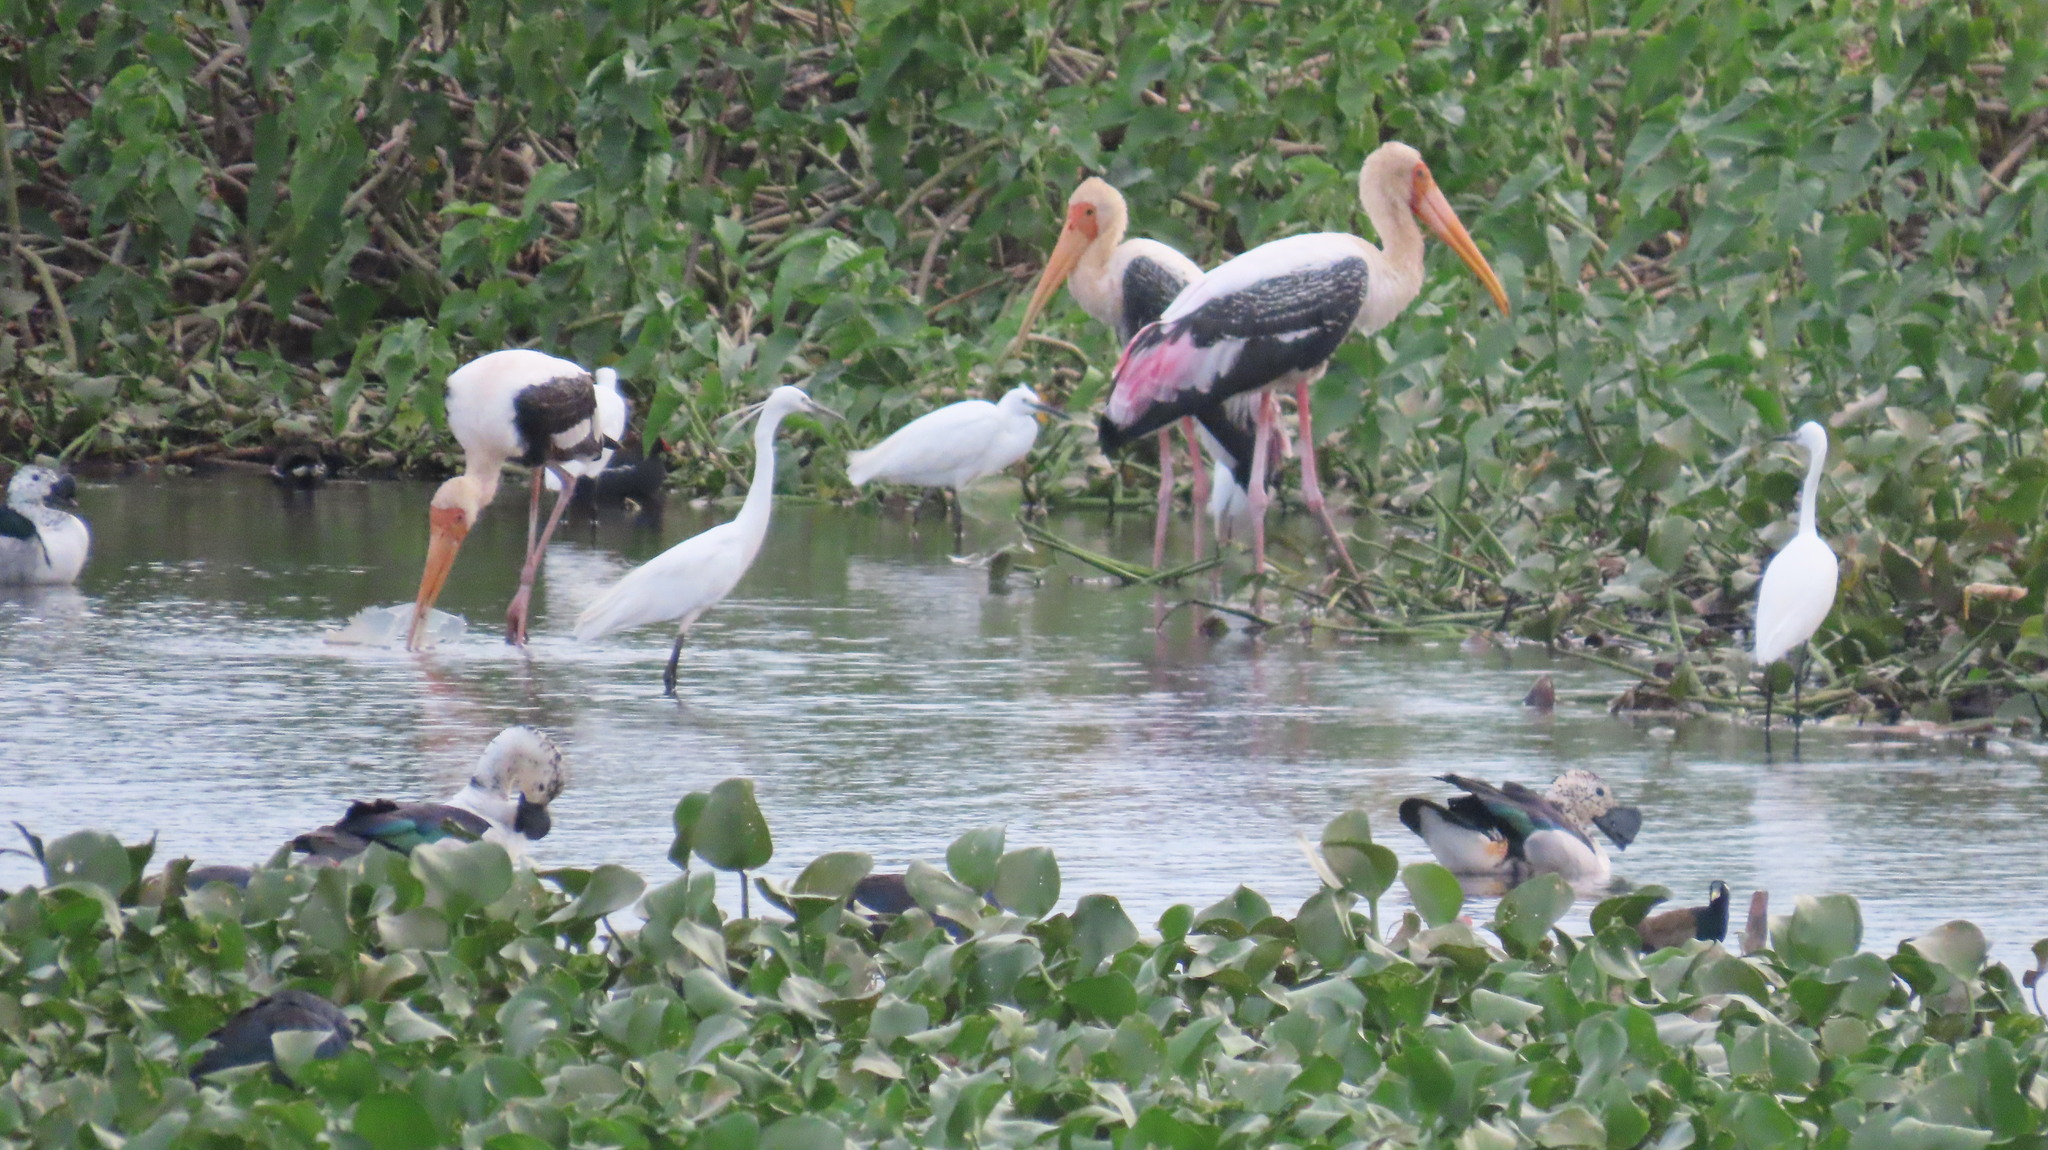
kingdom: Animalia
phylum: Chordata
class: Aves
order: Pelecaniformes
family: Ardeidae
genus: Egretta
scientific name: Egretta garzetta
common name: Little egret
